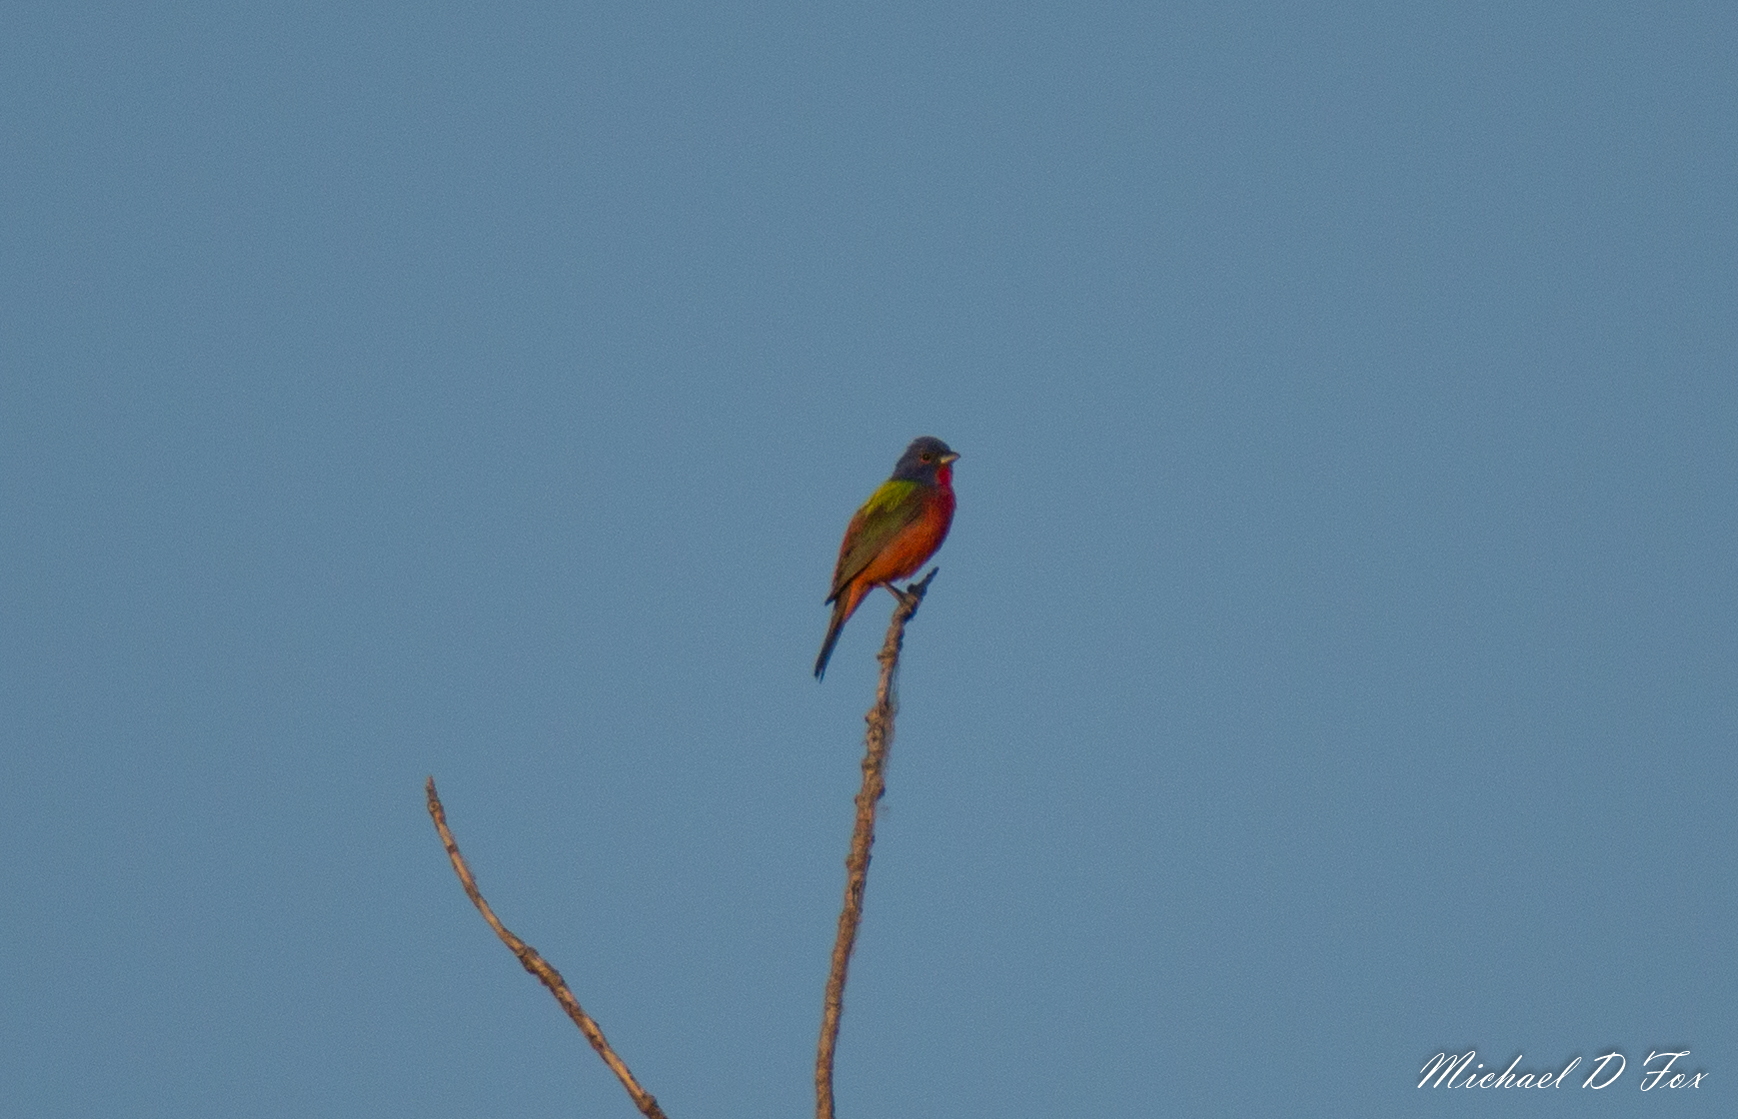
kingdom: Animalia
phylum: Chordata
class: Aves
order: Passeriformes
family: Cardinalidae
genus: Passerina
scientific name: Passerina ciris
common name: Painted bunting
